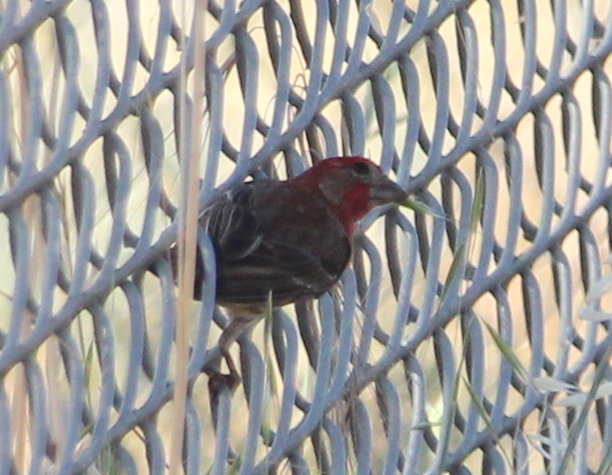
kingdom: Animalia
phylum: Chordata
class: Aves
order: Passeriformes
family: Fringillidae
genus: Haemorhous
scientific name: Haemorhous mexicanus
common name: House finch
